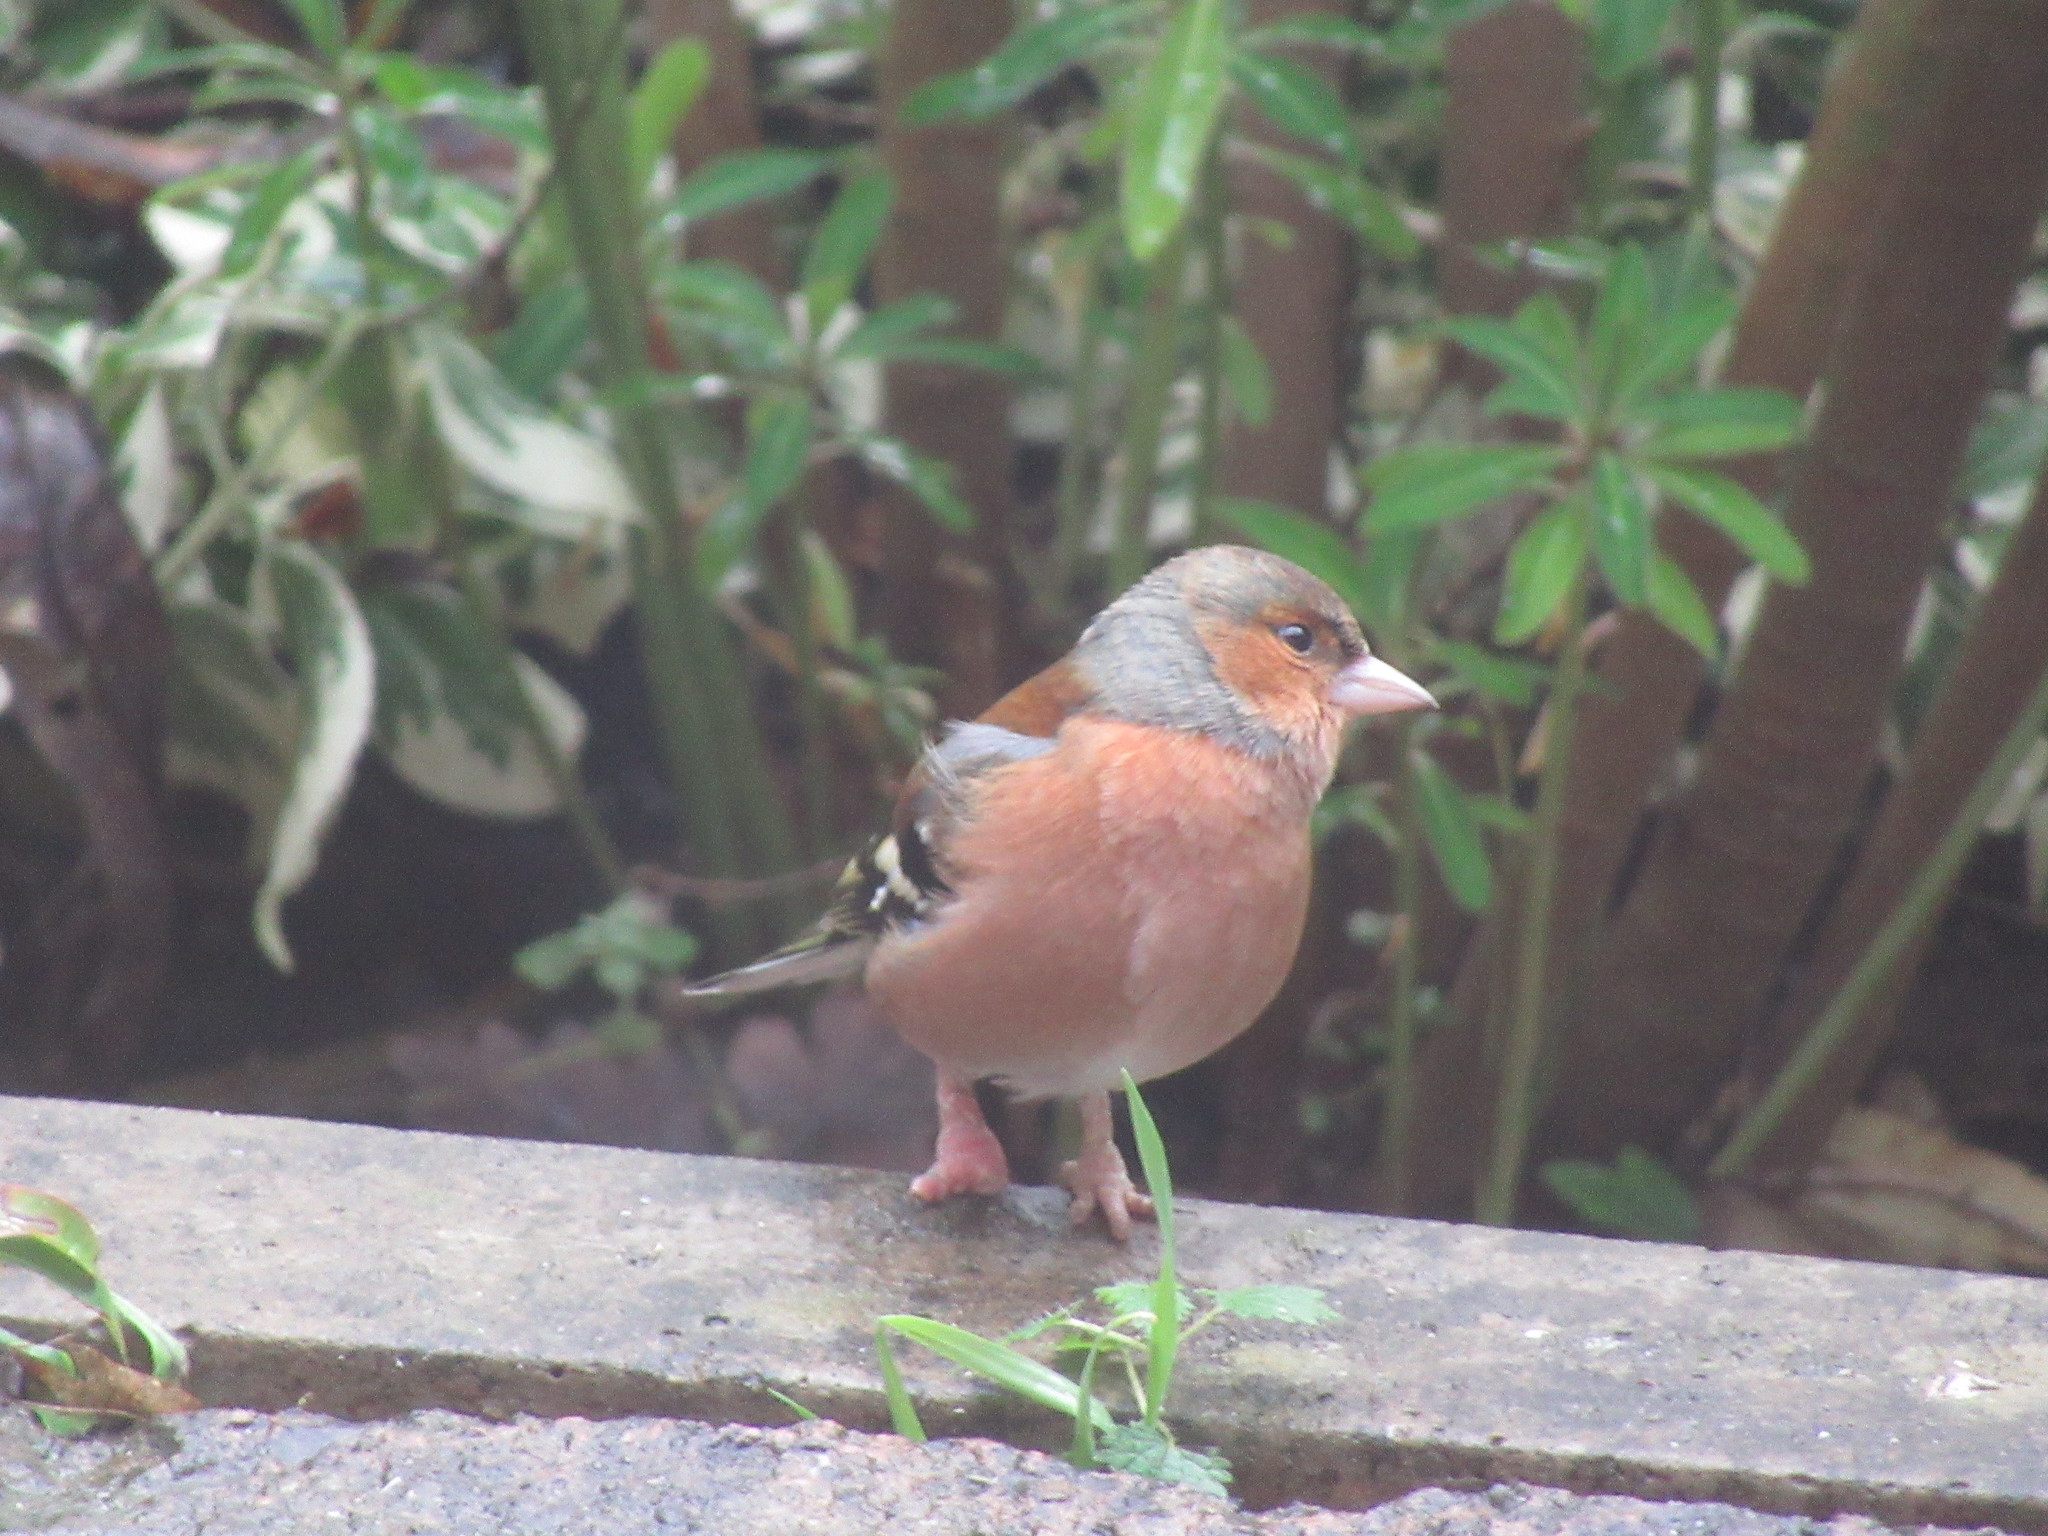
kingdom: Animalia
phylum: Chordata
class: Aves
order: Passeriformes
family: Fringillidae
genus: Fringilla
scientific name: Fringilla coelebs
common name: Common chaffinch
